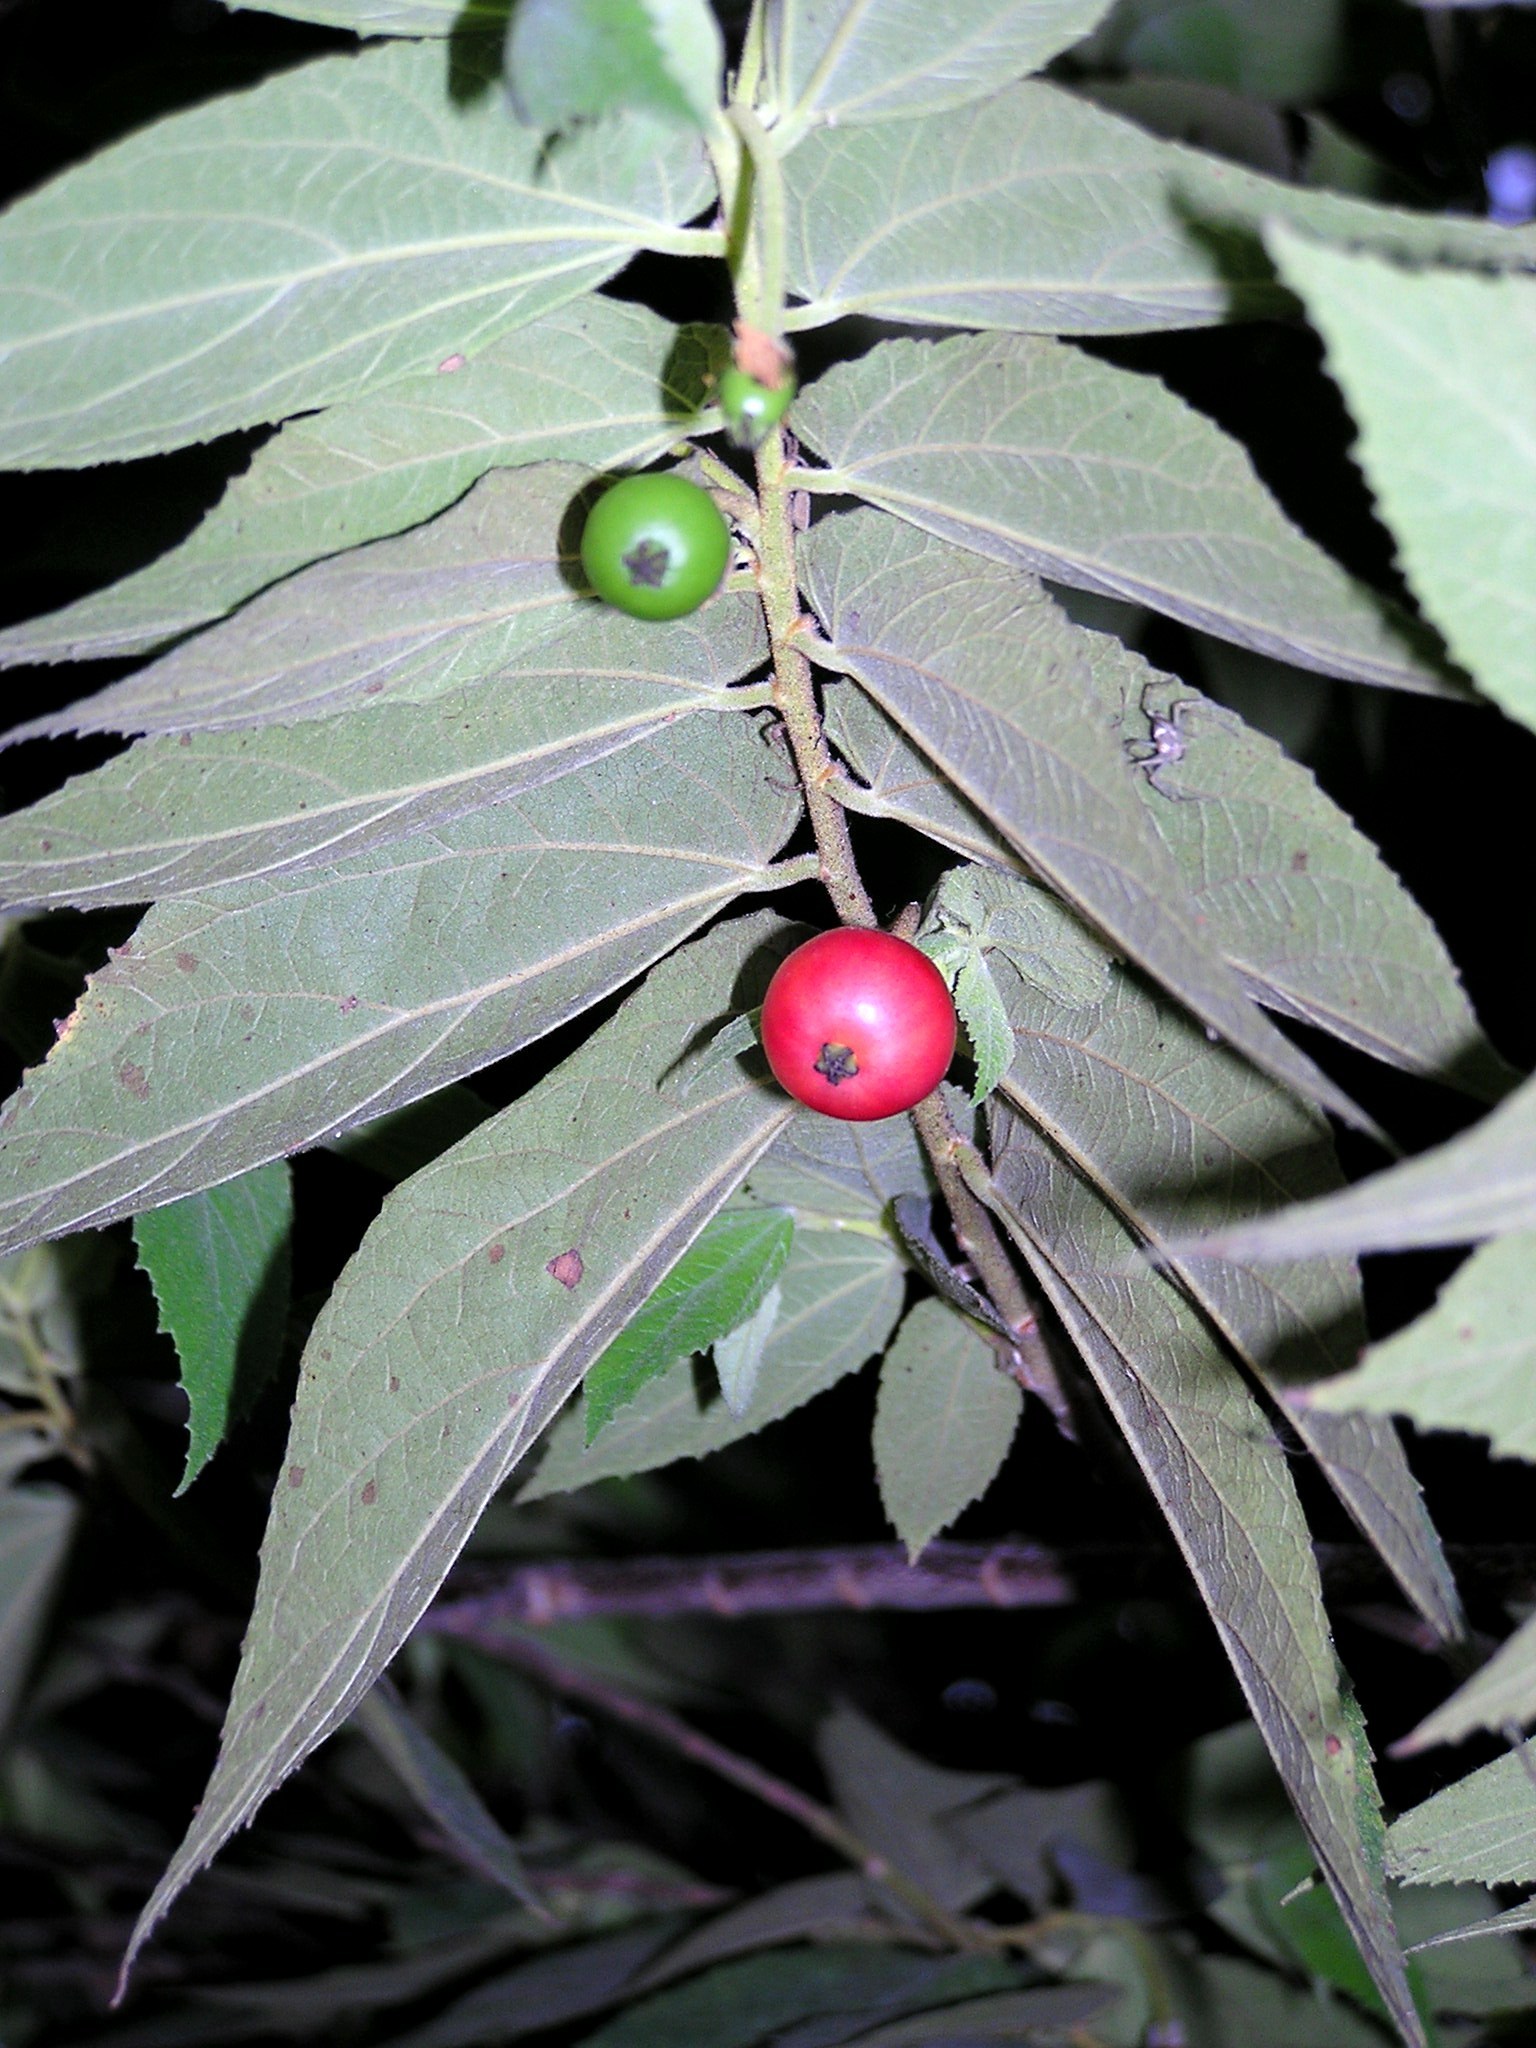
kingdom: Plantae
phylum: Tracheophyta
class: Magnoliopsida
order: Malvales
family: Muntingiaceae
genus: Muntingia
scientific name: Muntingia calabura
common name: Strawberrytree
